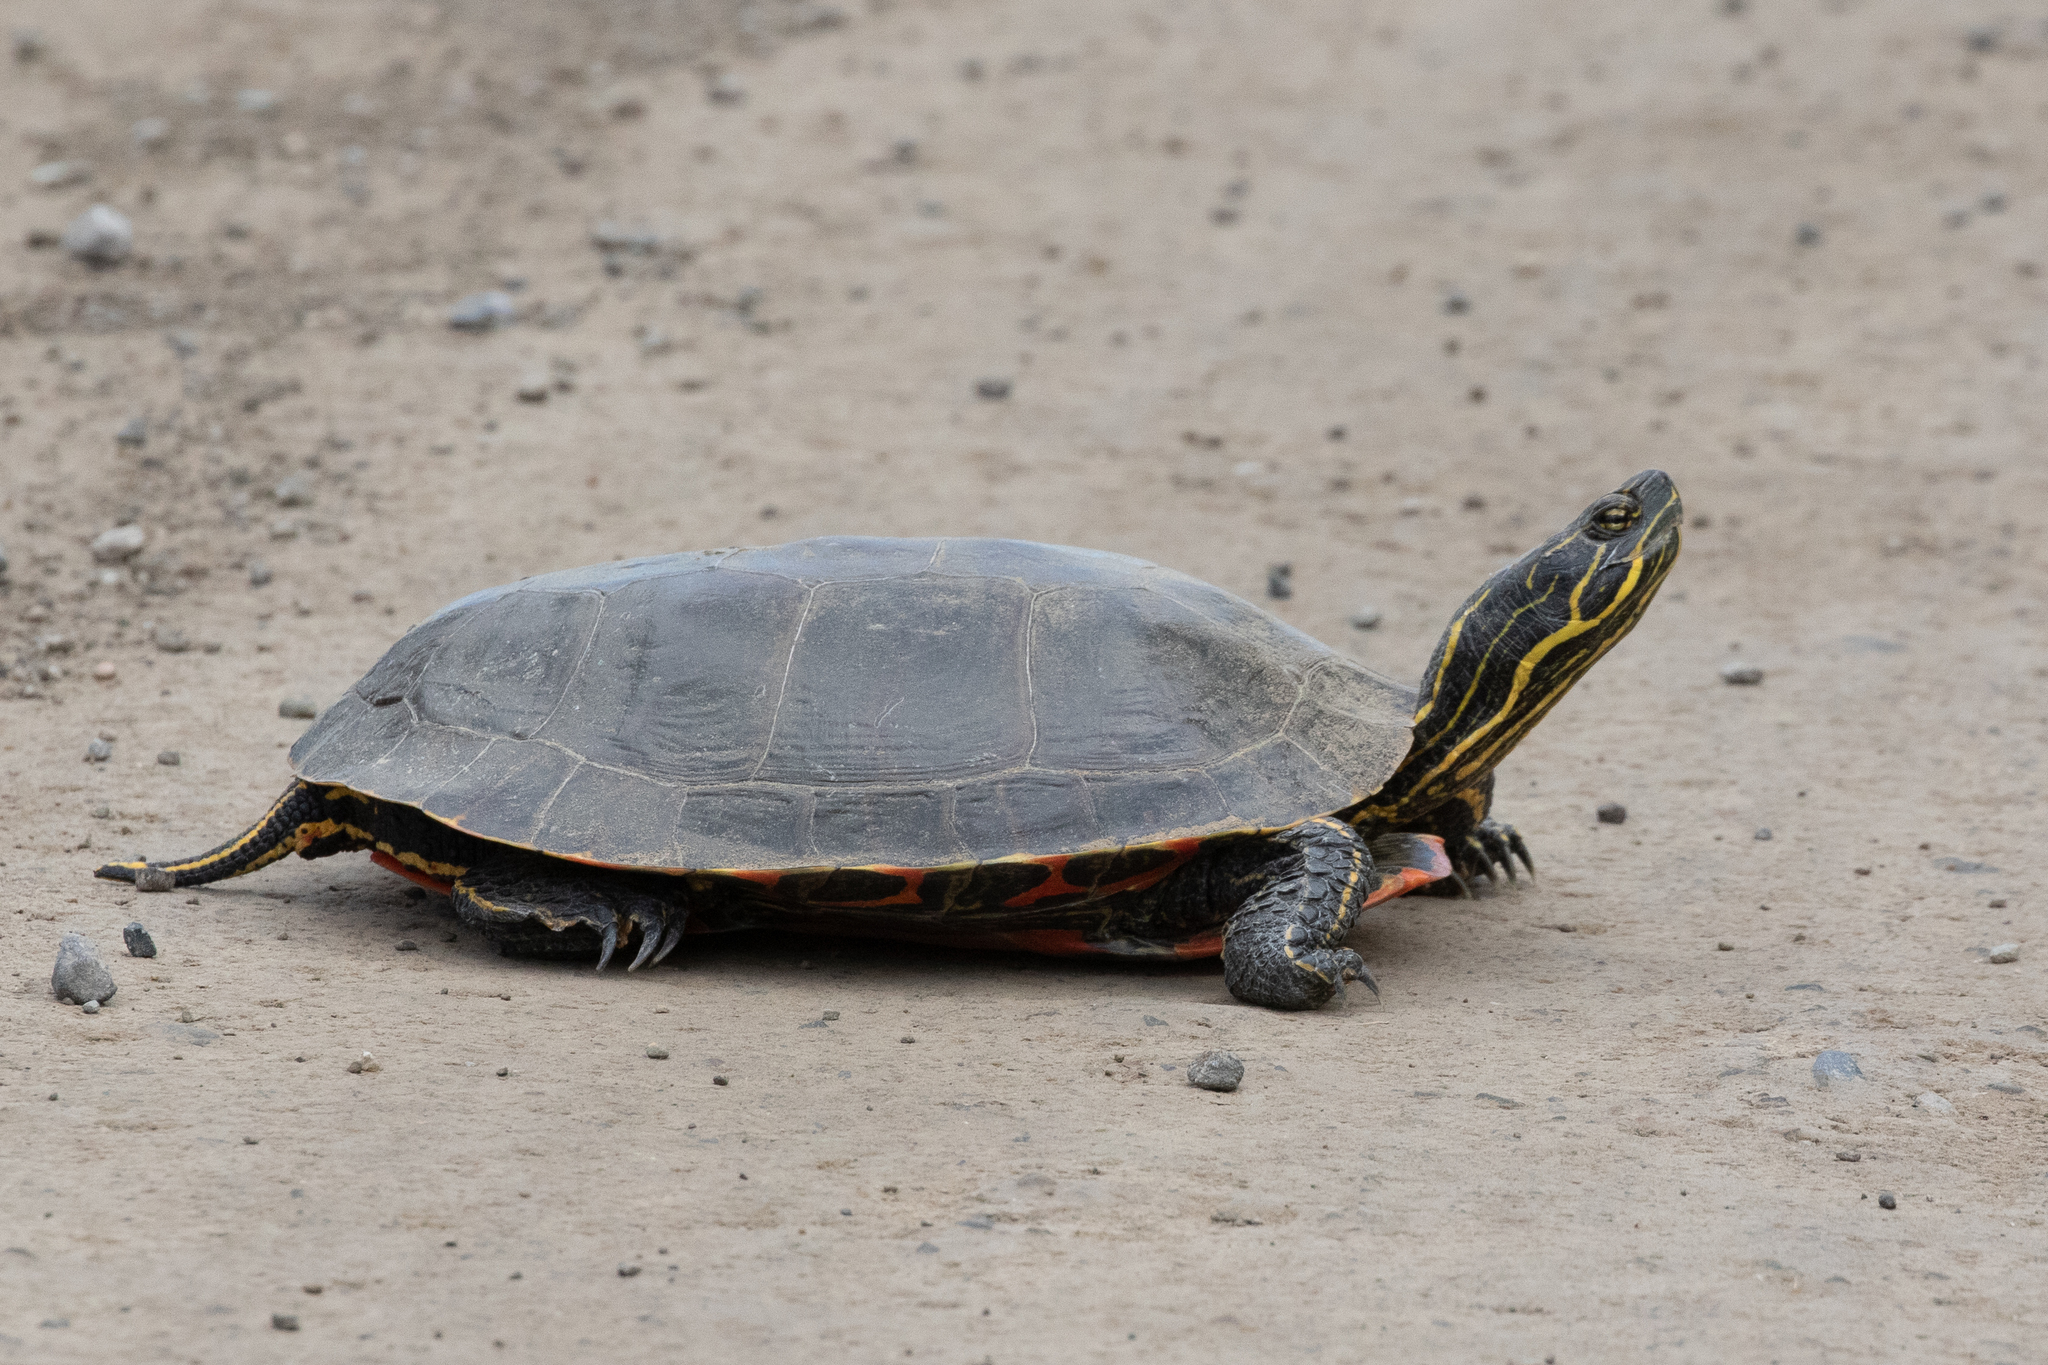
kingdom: Animalia
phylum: Chordata
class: Testudines
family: Emydidae
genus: Chrysemys
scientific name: Chrysemys picta
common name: Painted turtle
